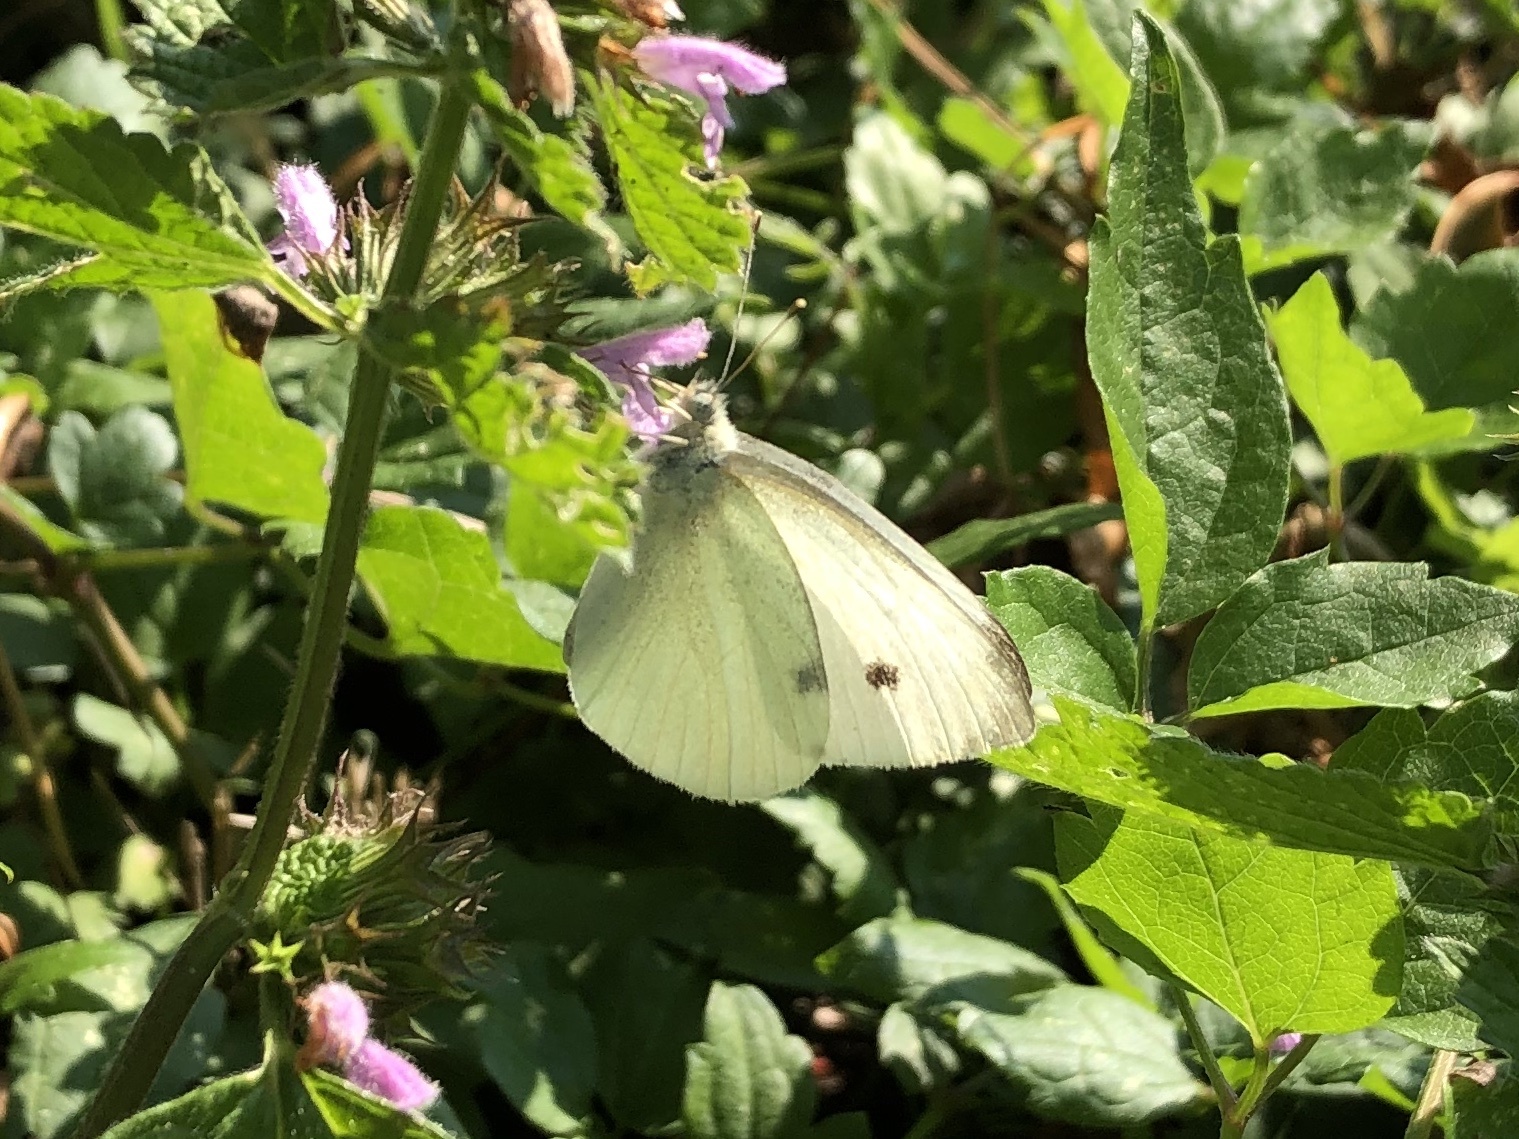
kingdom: Animalia
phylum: Arthropoda
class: Insecta
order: Lepidoptera
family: Pieridae
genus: Pieris
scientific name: Pieris rapae
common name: Small white
